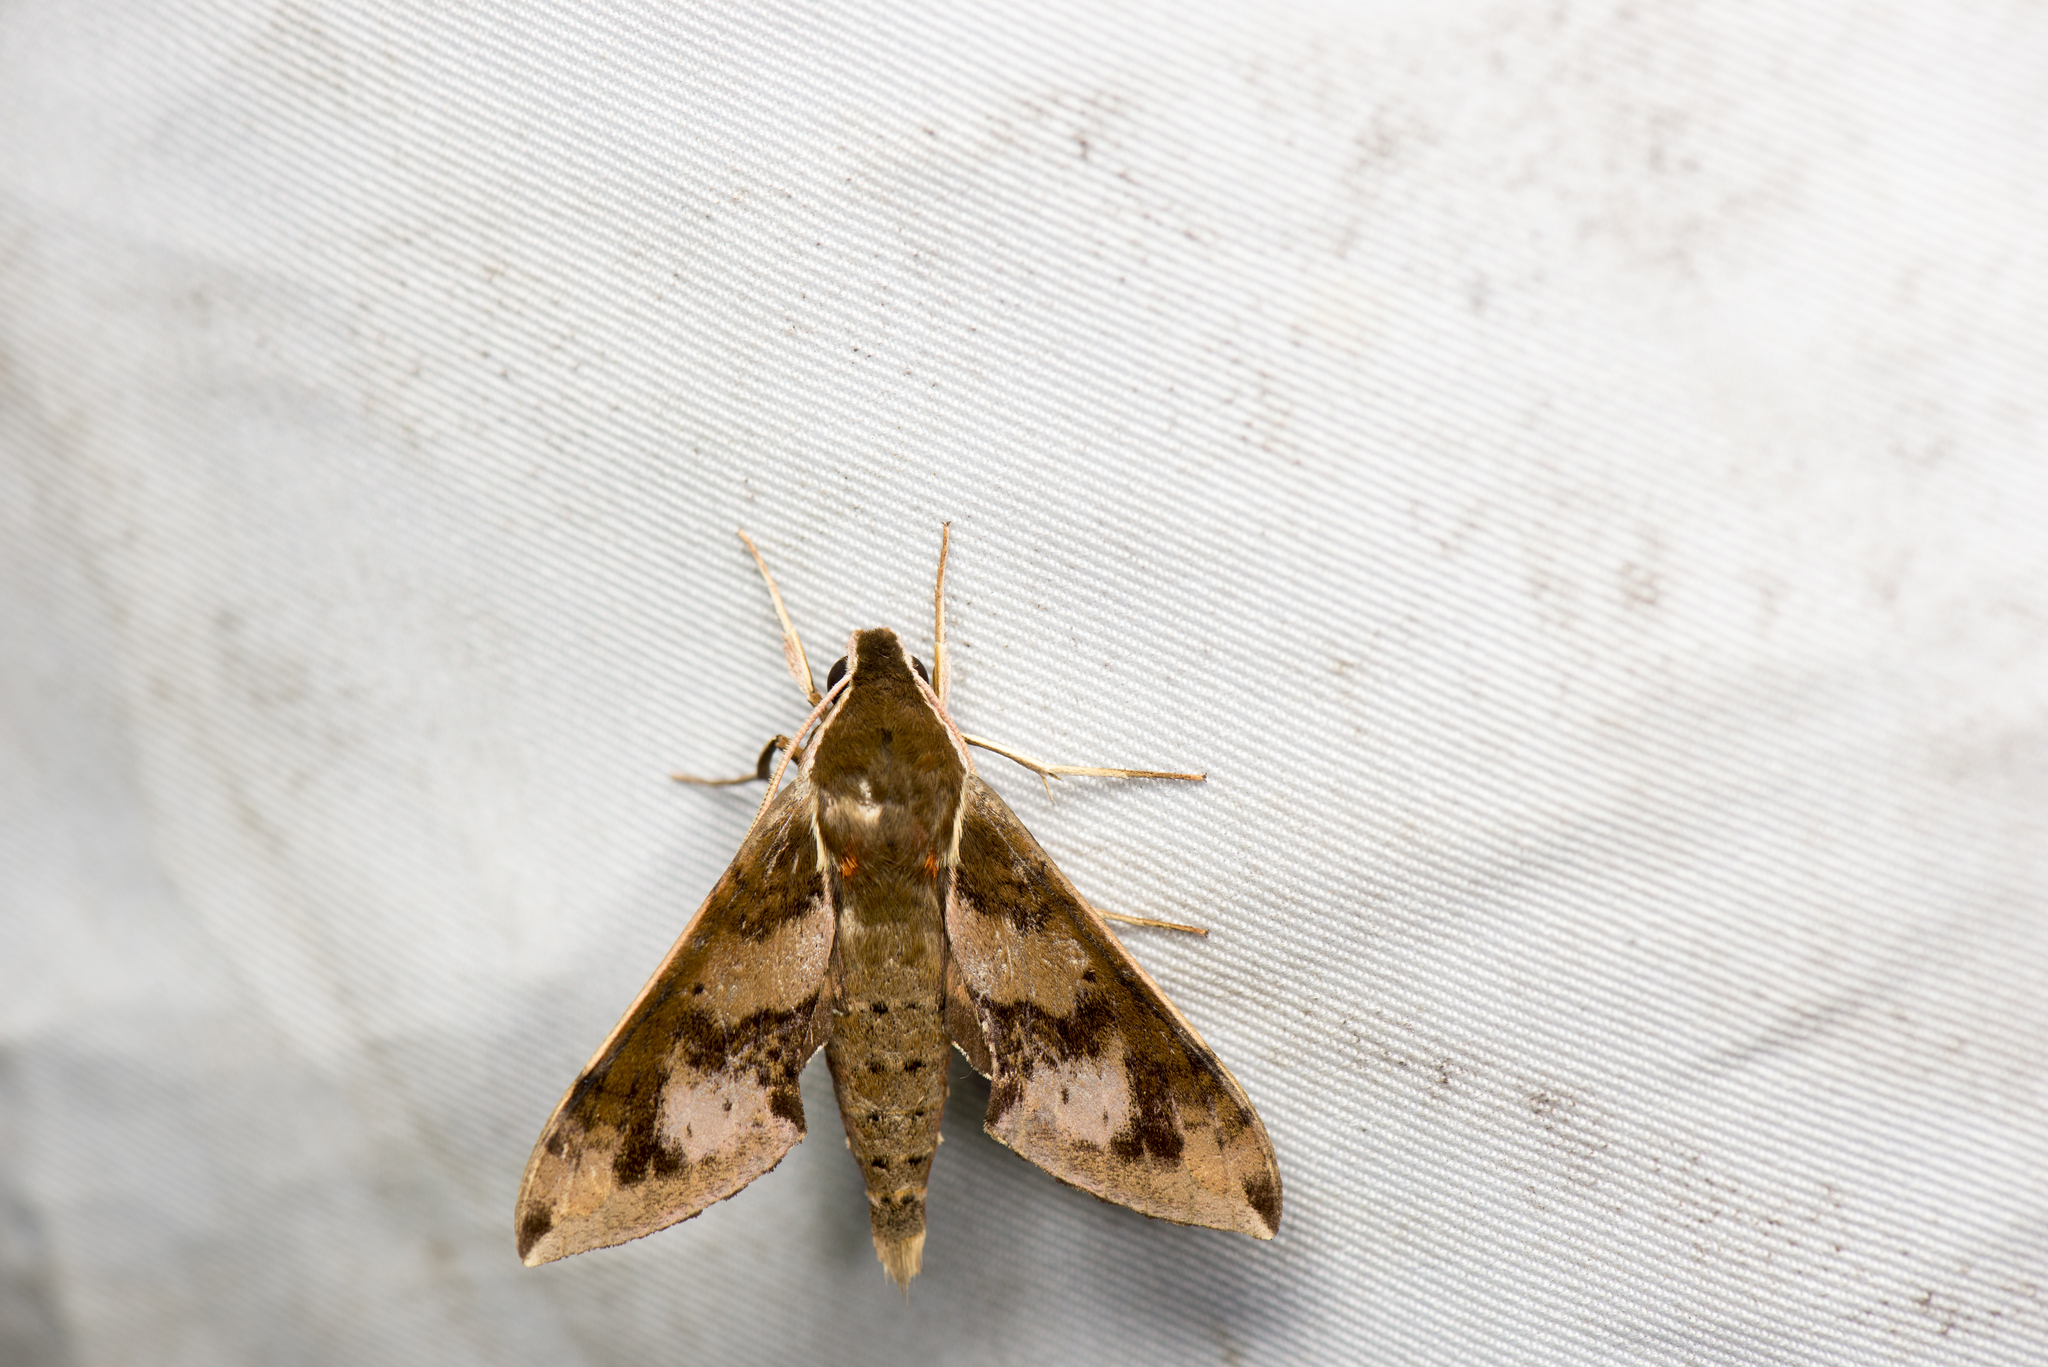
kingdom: Animalia
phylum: Arthropoda
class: Insecta
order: Lepidoptera
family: Sphingidae
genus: Rhagastis
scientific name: Rhagastis binoculata
